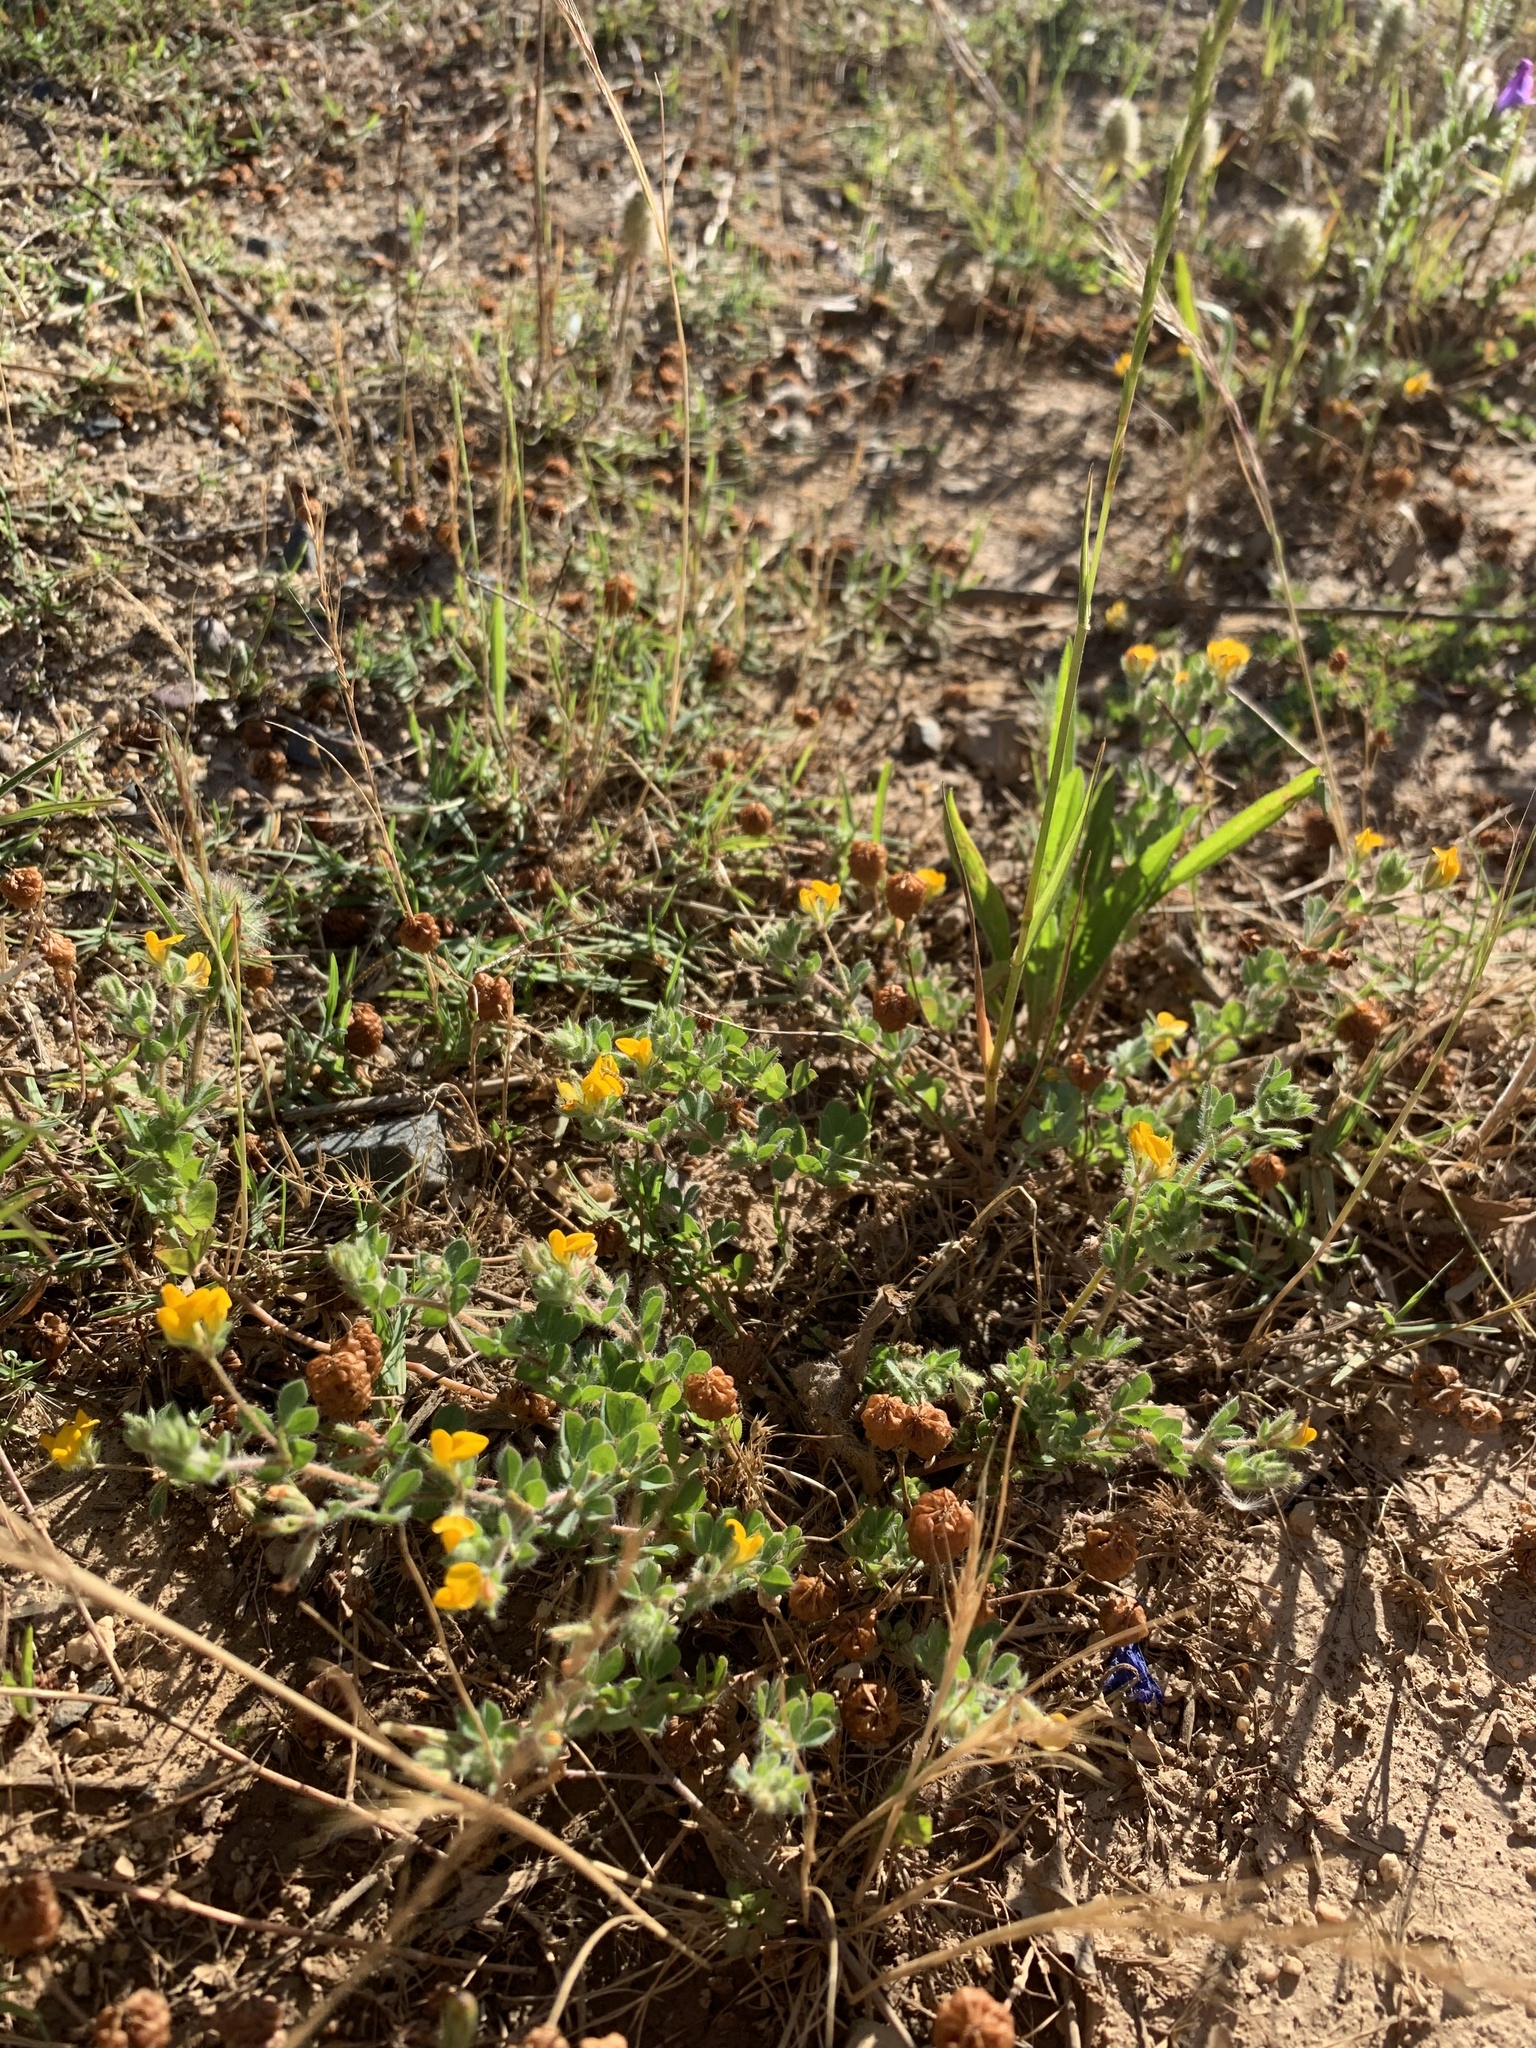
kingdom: Plantae
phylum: Tracheophyta
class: Magnoliopsida
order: Fabales
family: Fabaceae
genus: Lotus
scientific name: Lotus subbiflorus
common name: Hairy bird's-foot trefoil
